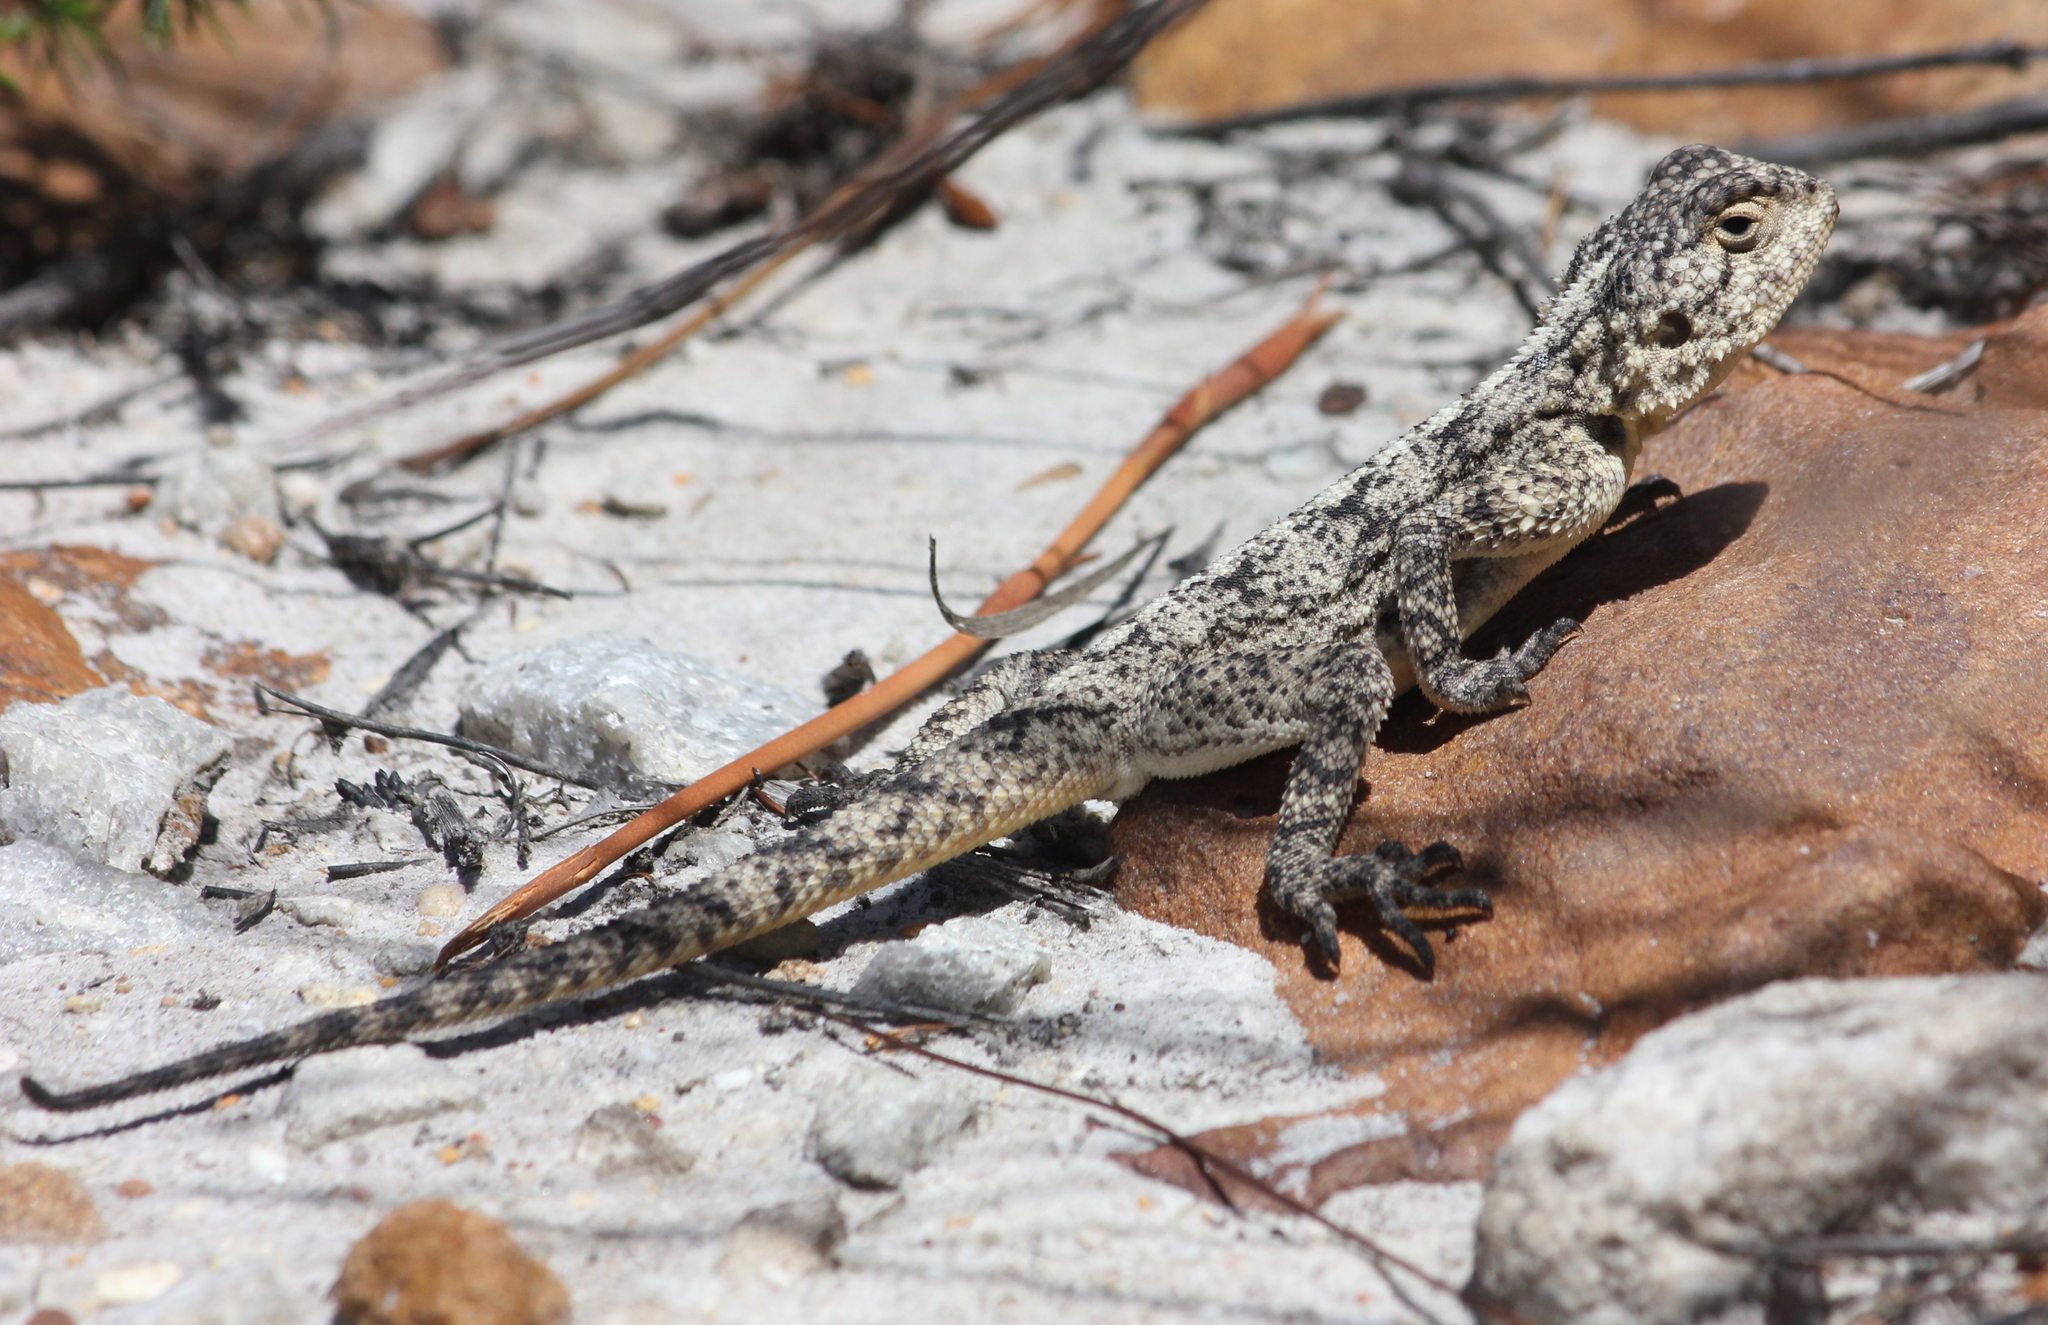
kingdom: Animalia
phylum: Chordata
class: Squamata
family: Agamidae
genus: Agama
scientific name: Agama atra
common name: Southern african rock agama
